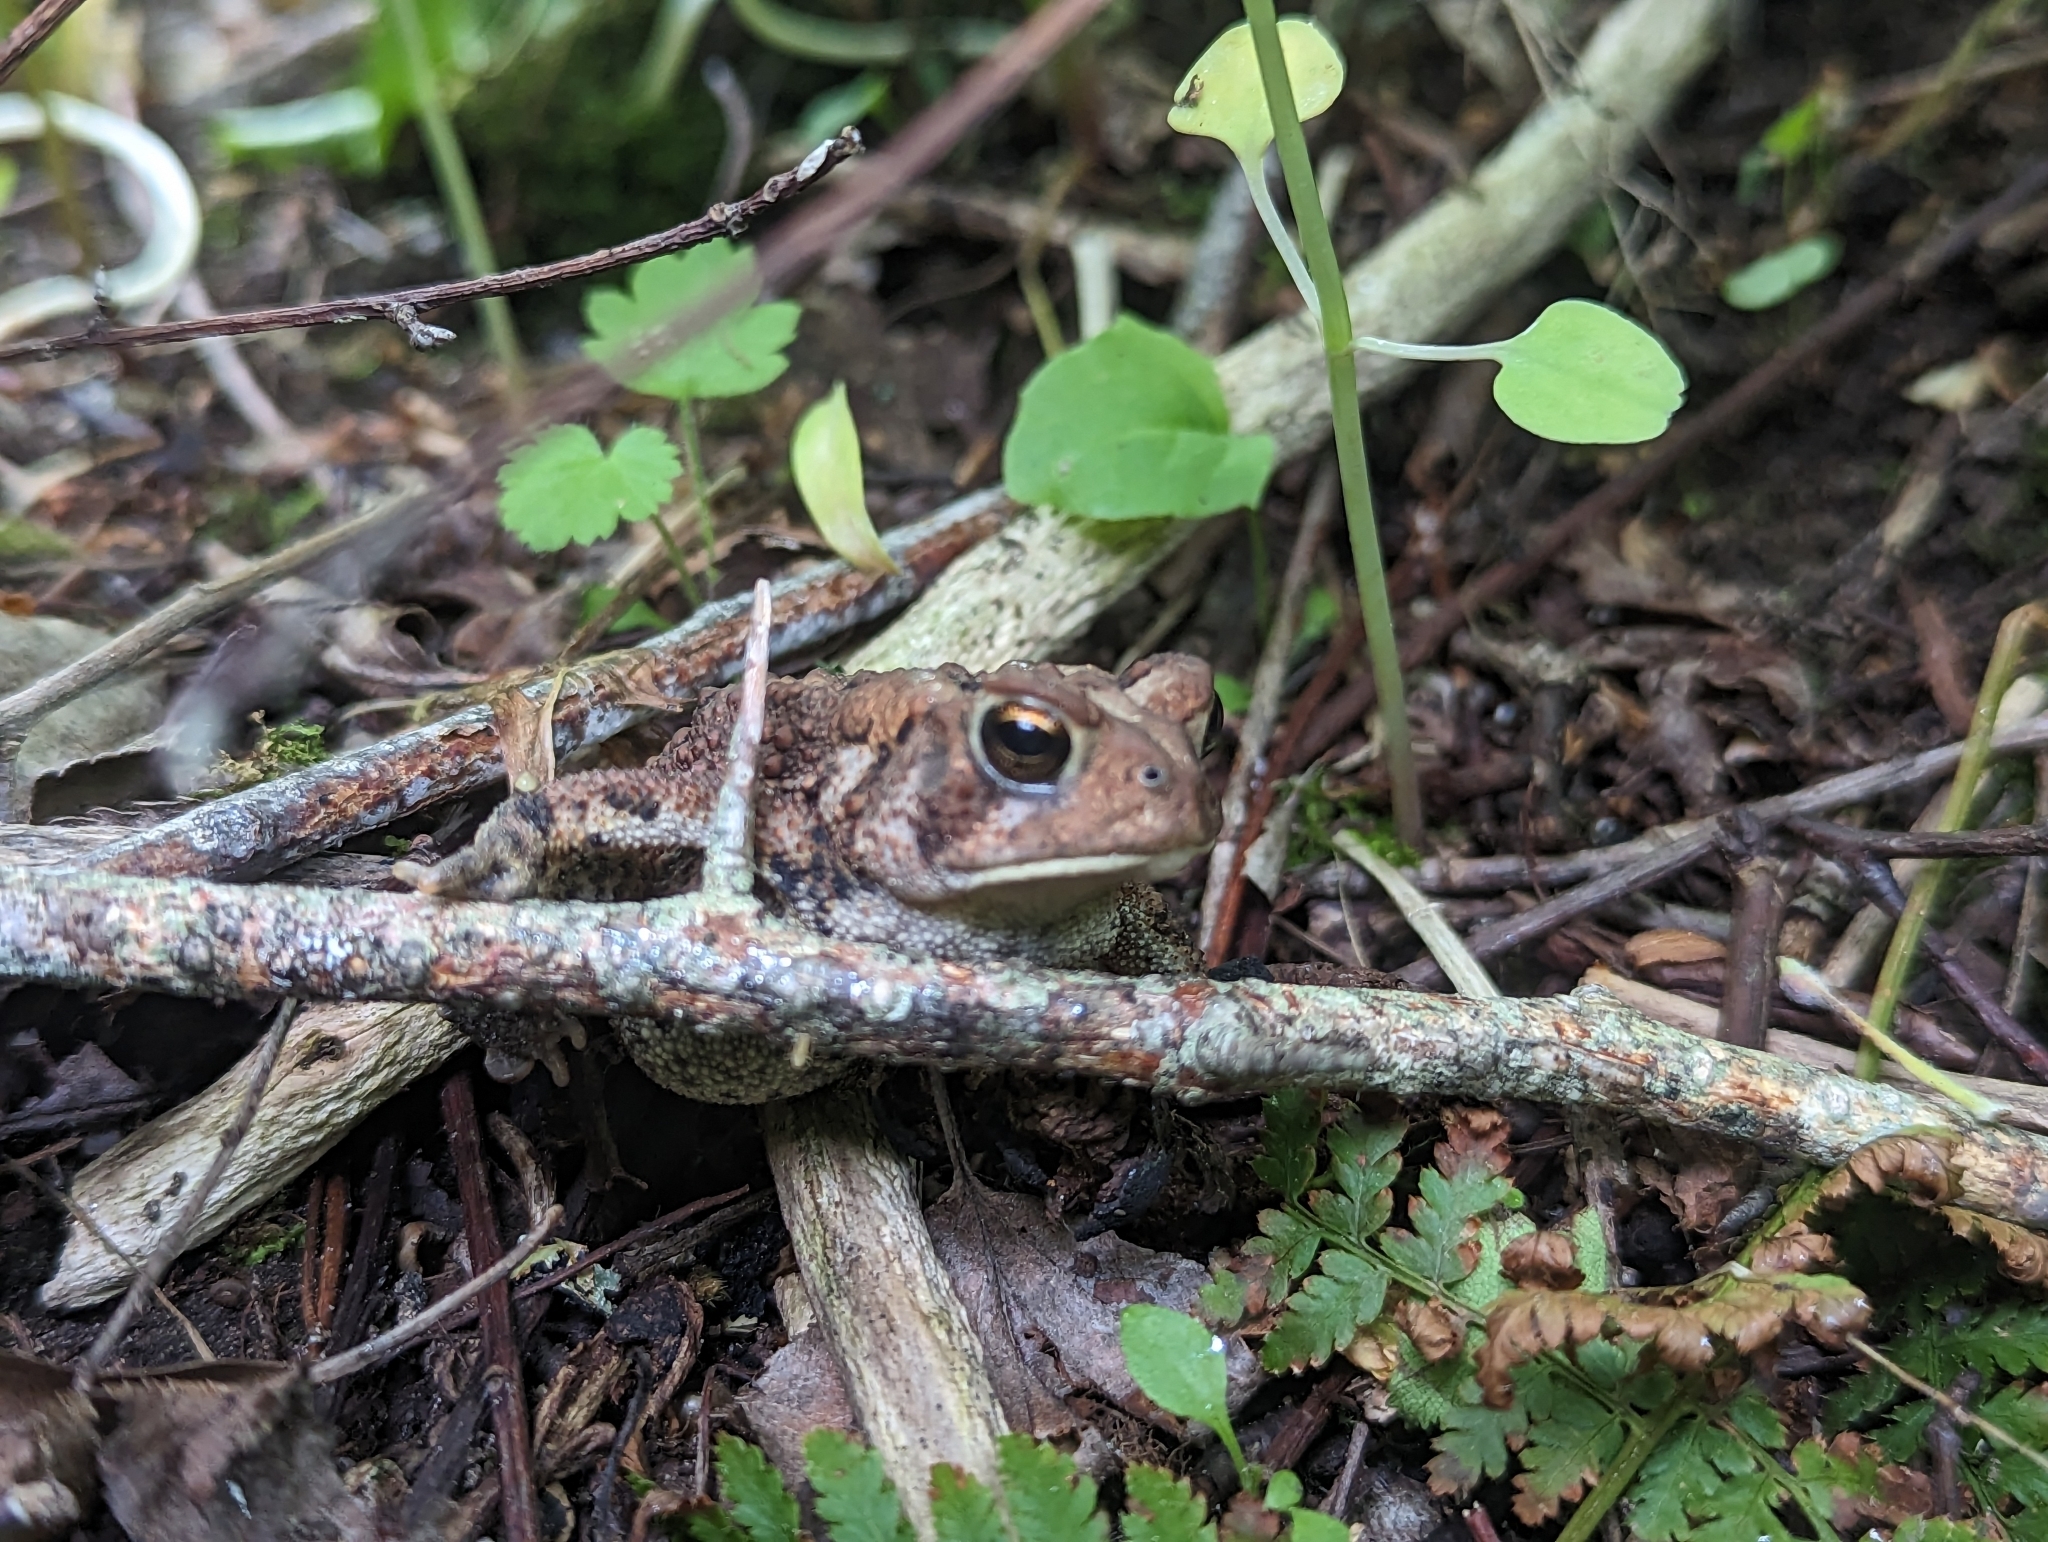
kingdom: Animalia
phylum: Chordata
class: Amphibia
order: Anura
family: Bufonidae
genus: Anaxyrus
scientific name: Anaxyrus americanus
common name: American toad
